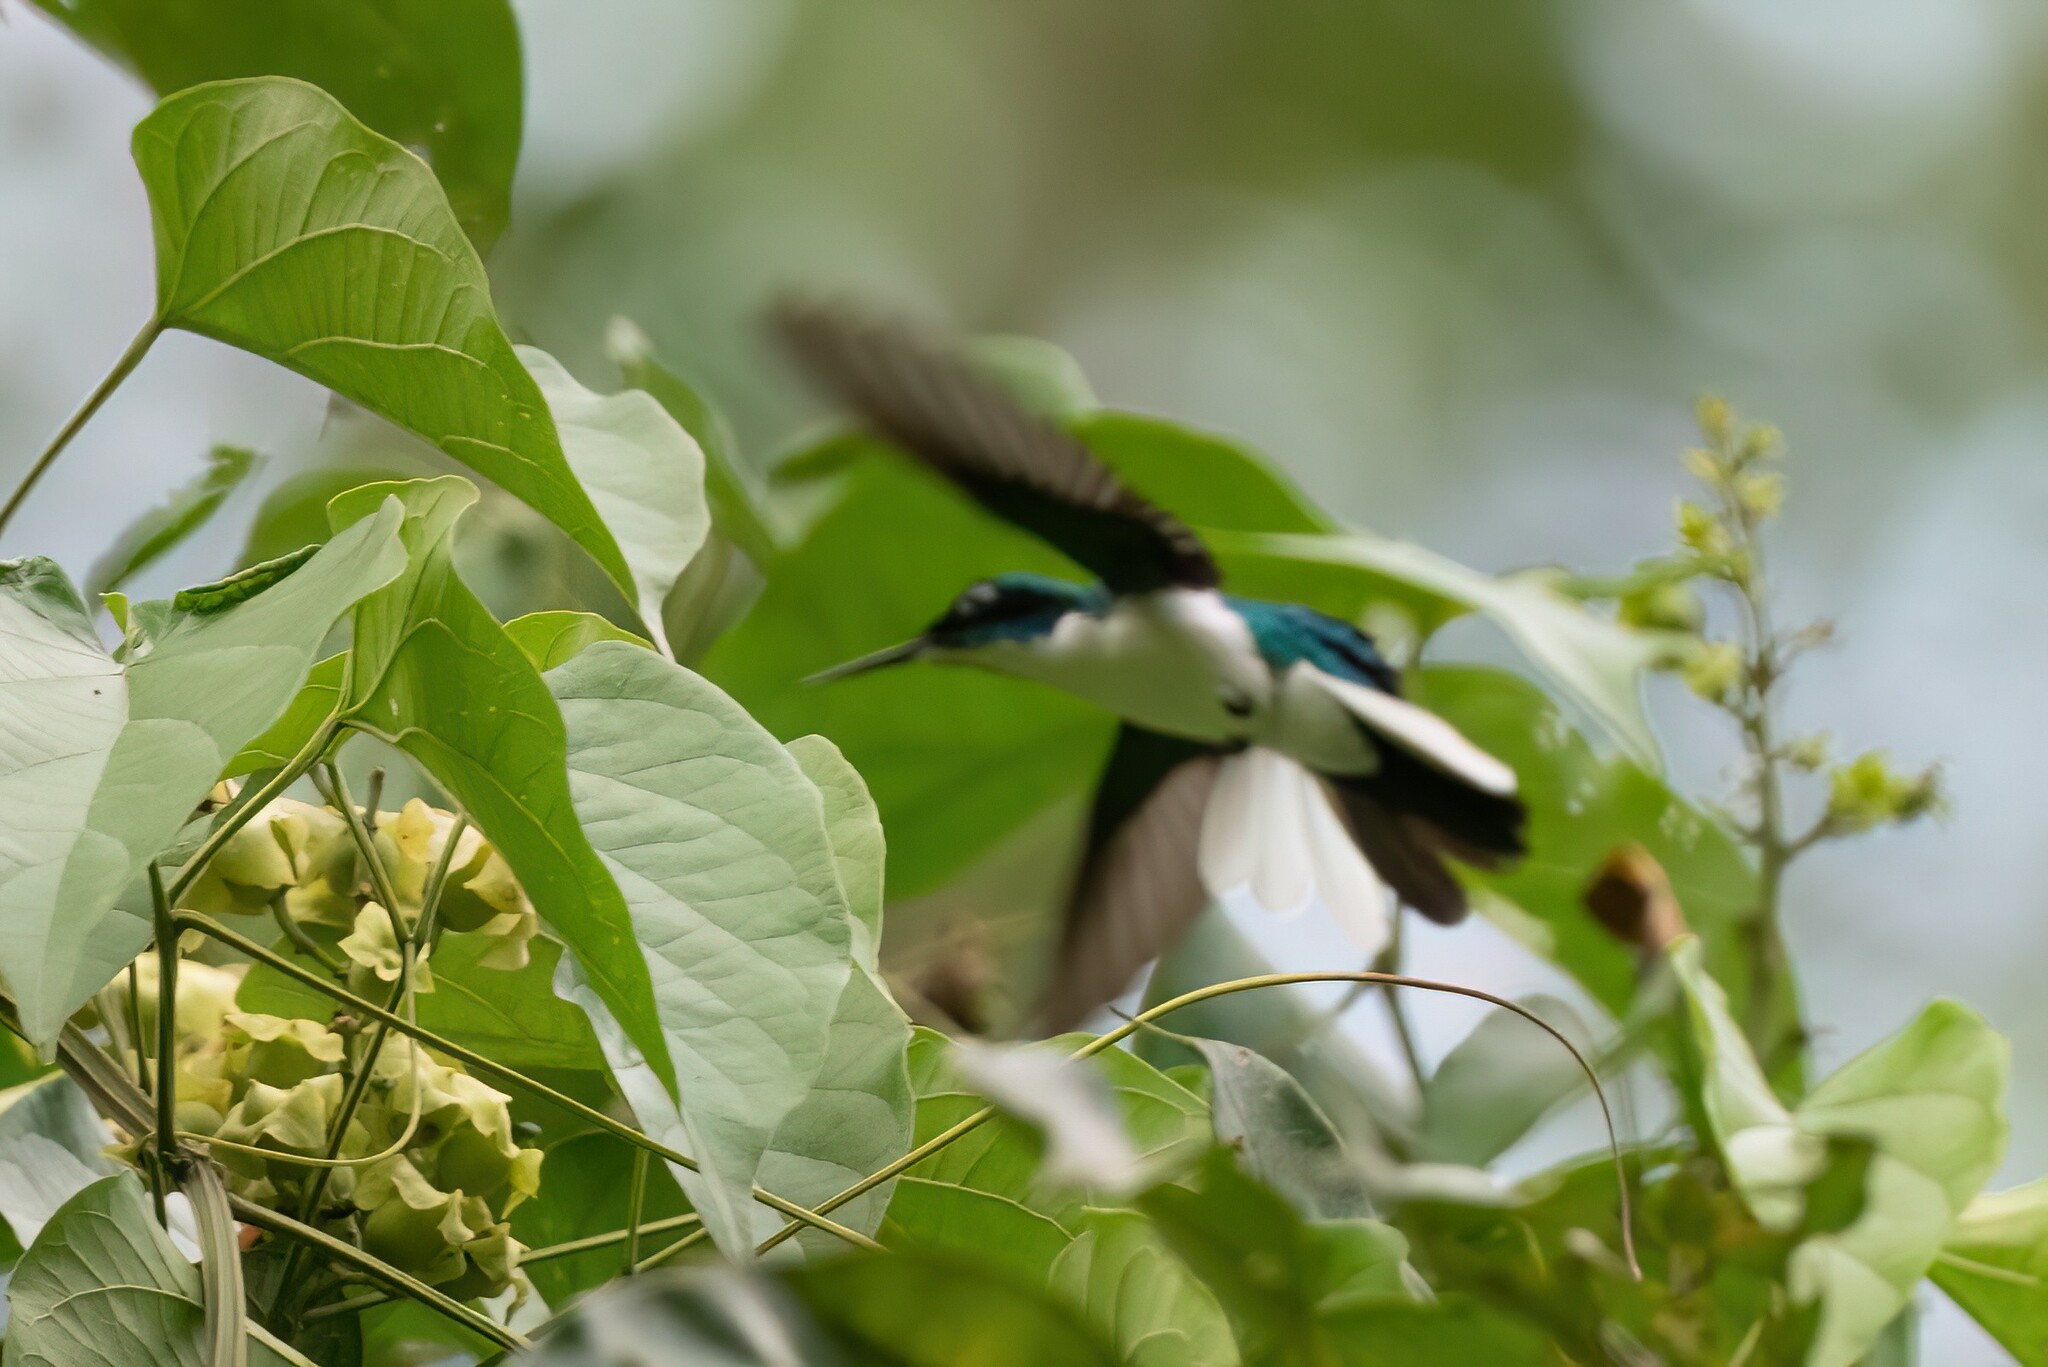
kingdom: Animalia
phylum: Chordata
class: Aves
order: Apodiformes
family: Trochilidae
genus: Heliothryx
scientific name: Heliothryx barroti
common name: Purple-crowned fairy
